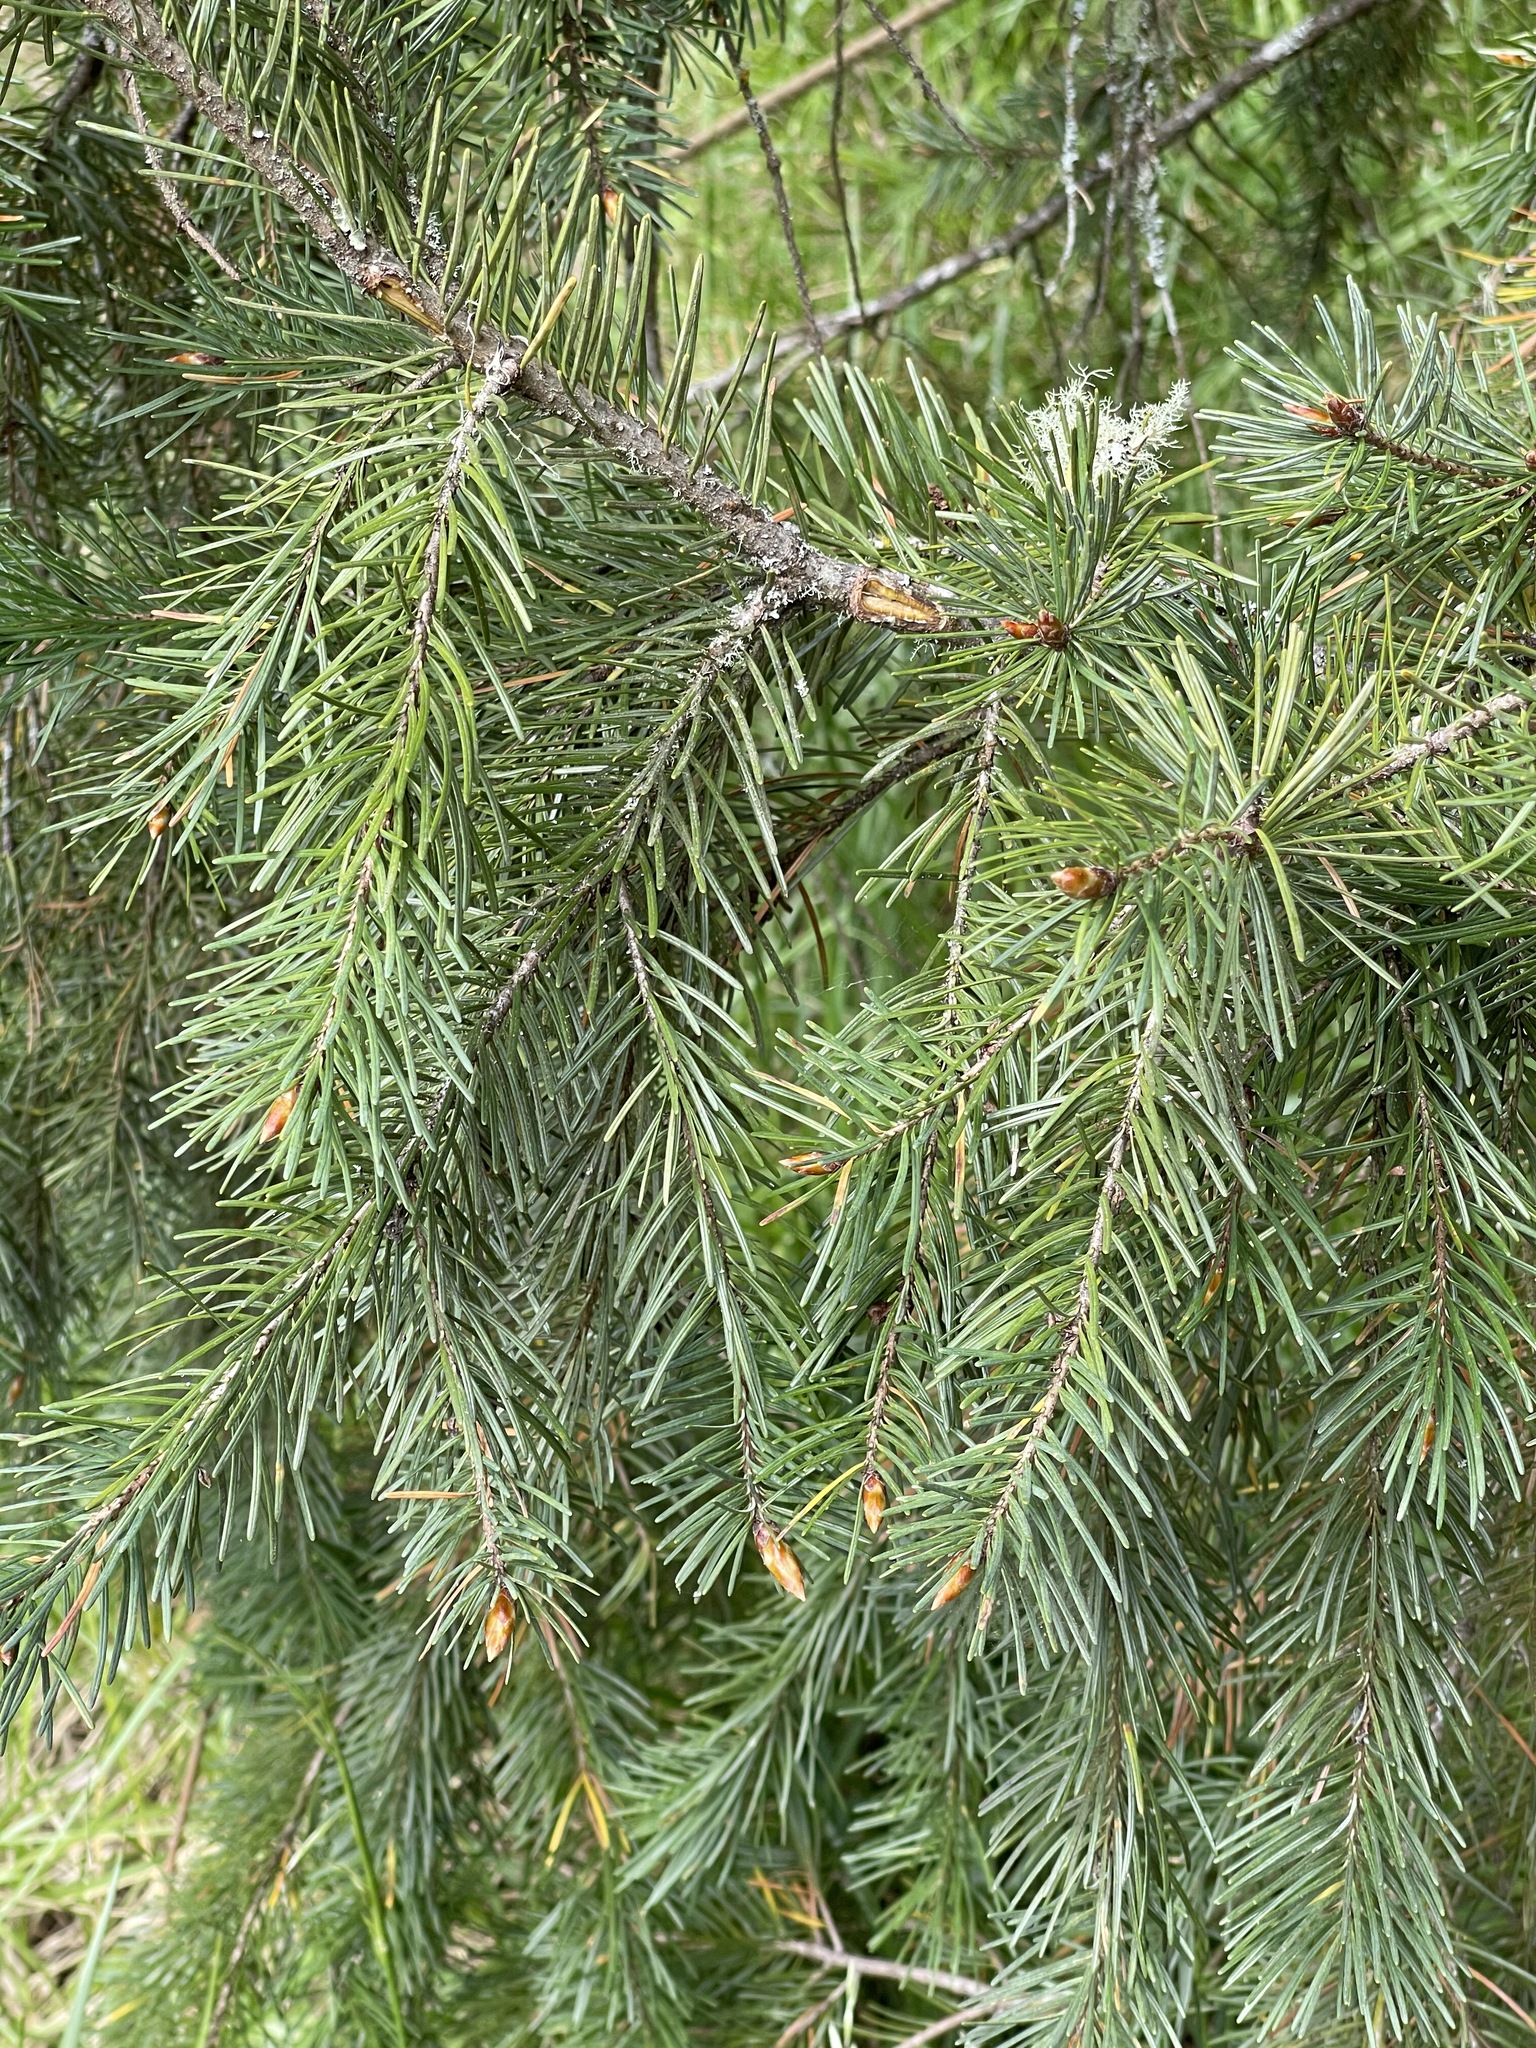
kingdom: Plantae
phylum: Tracheophyta
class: Pinopsida
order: Pinales
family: Pinaceae
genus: Pseudotsuga
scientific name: Pseudotsuga menziesii
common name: Douglas fir
